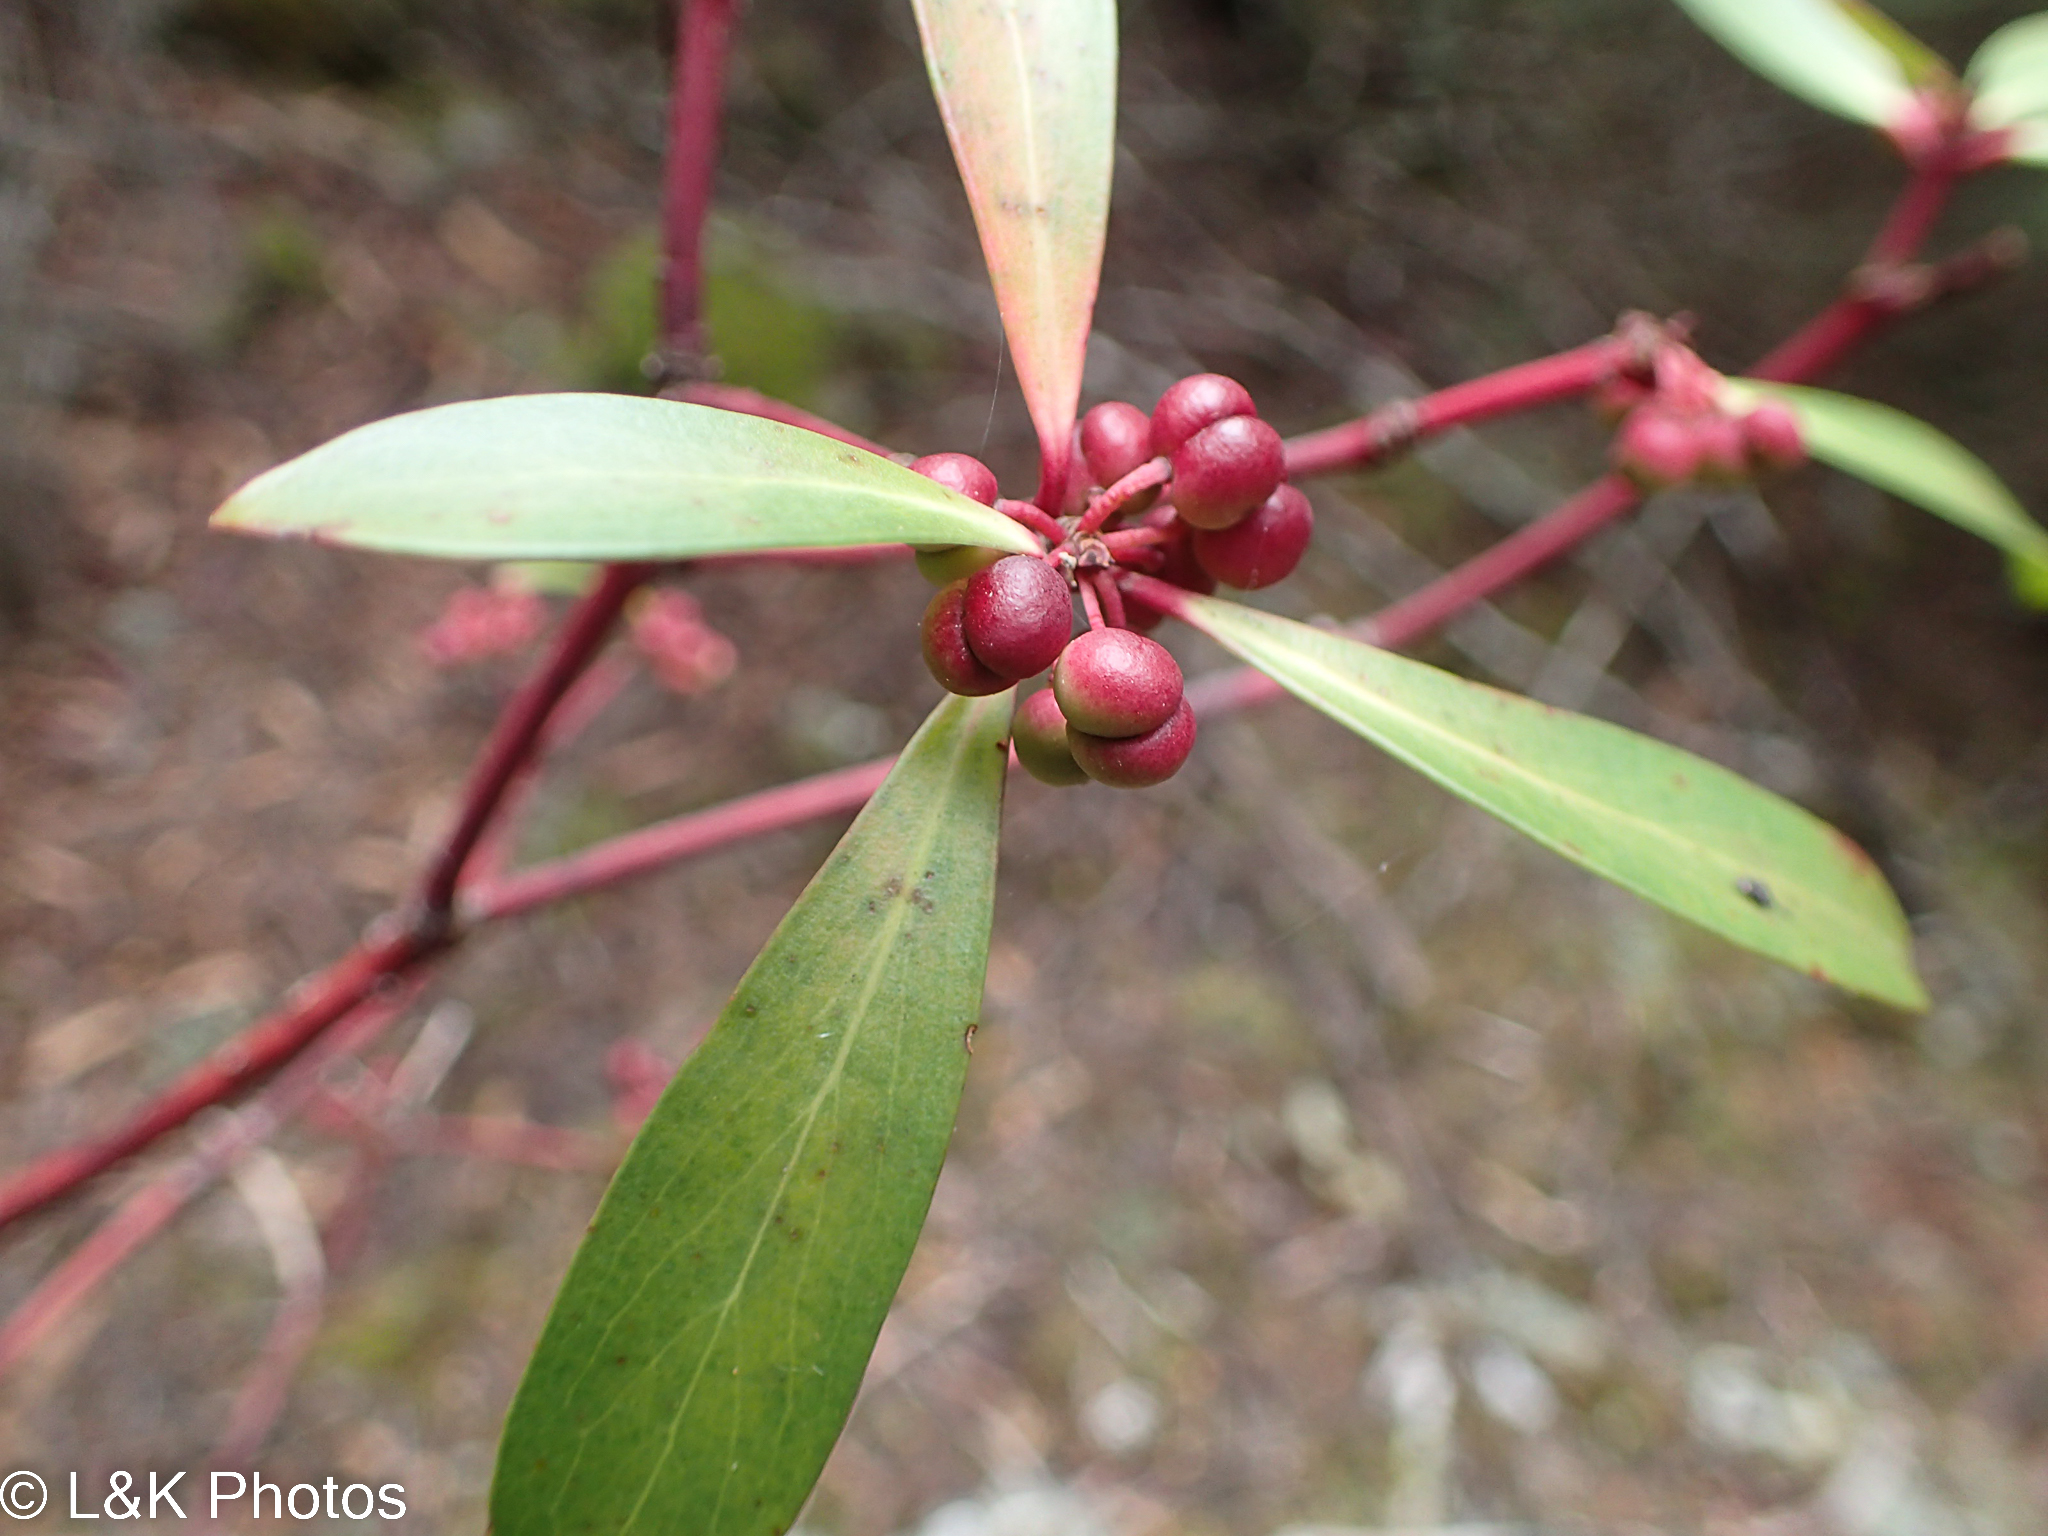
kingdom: Plantae
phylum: Tracheophyta
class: Magnoliopsida
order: Canellales
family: Winteraceae
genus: Drimys
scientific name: Drimys aromatica
